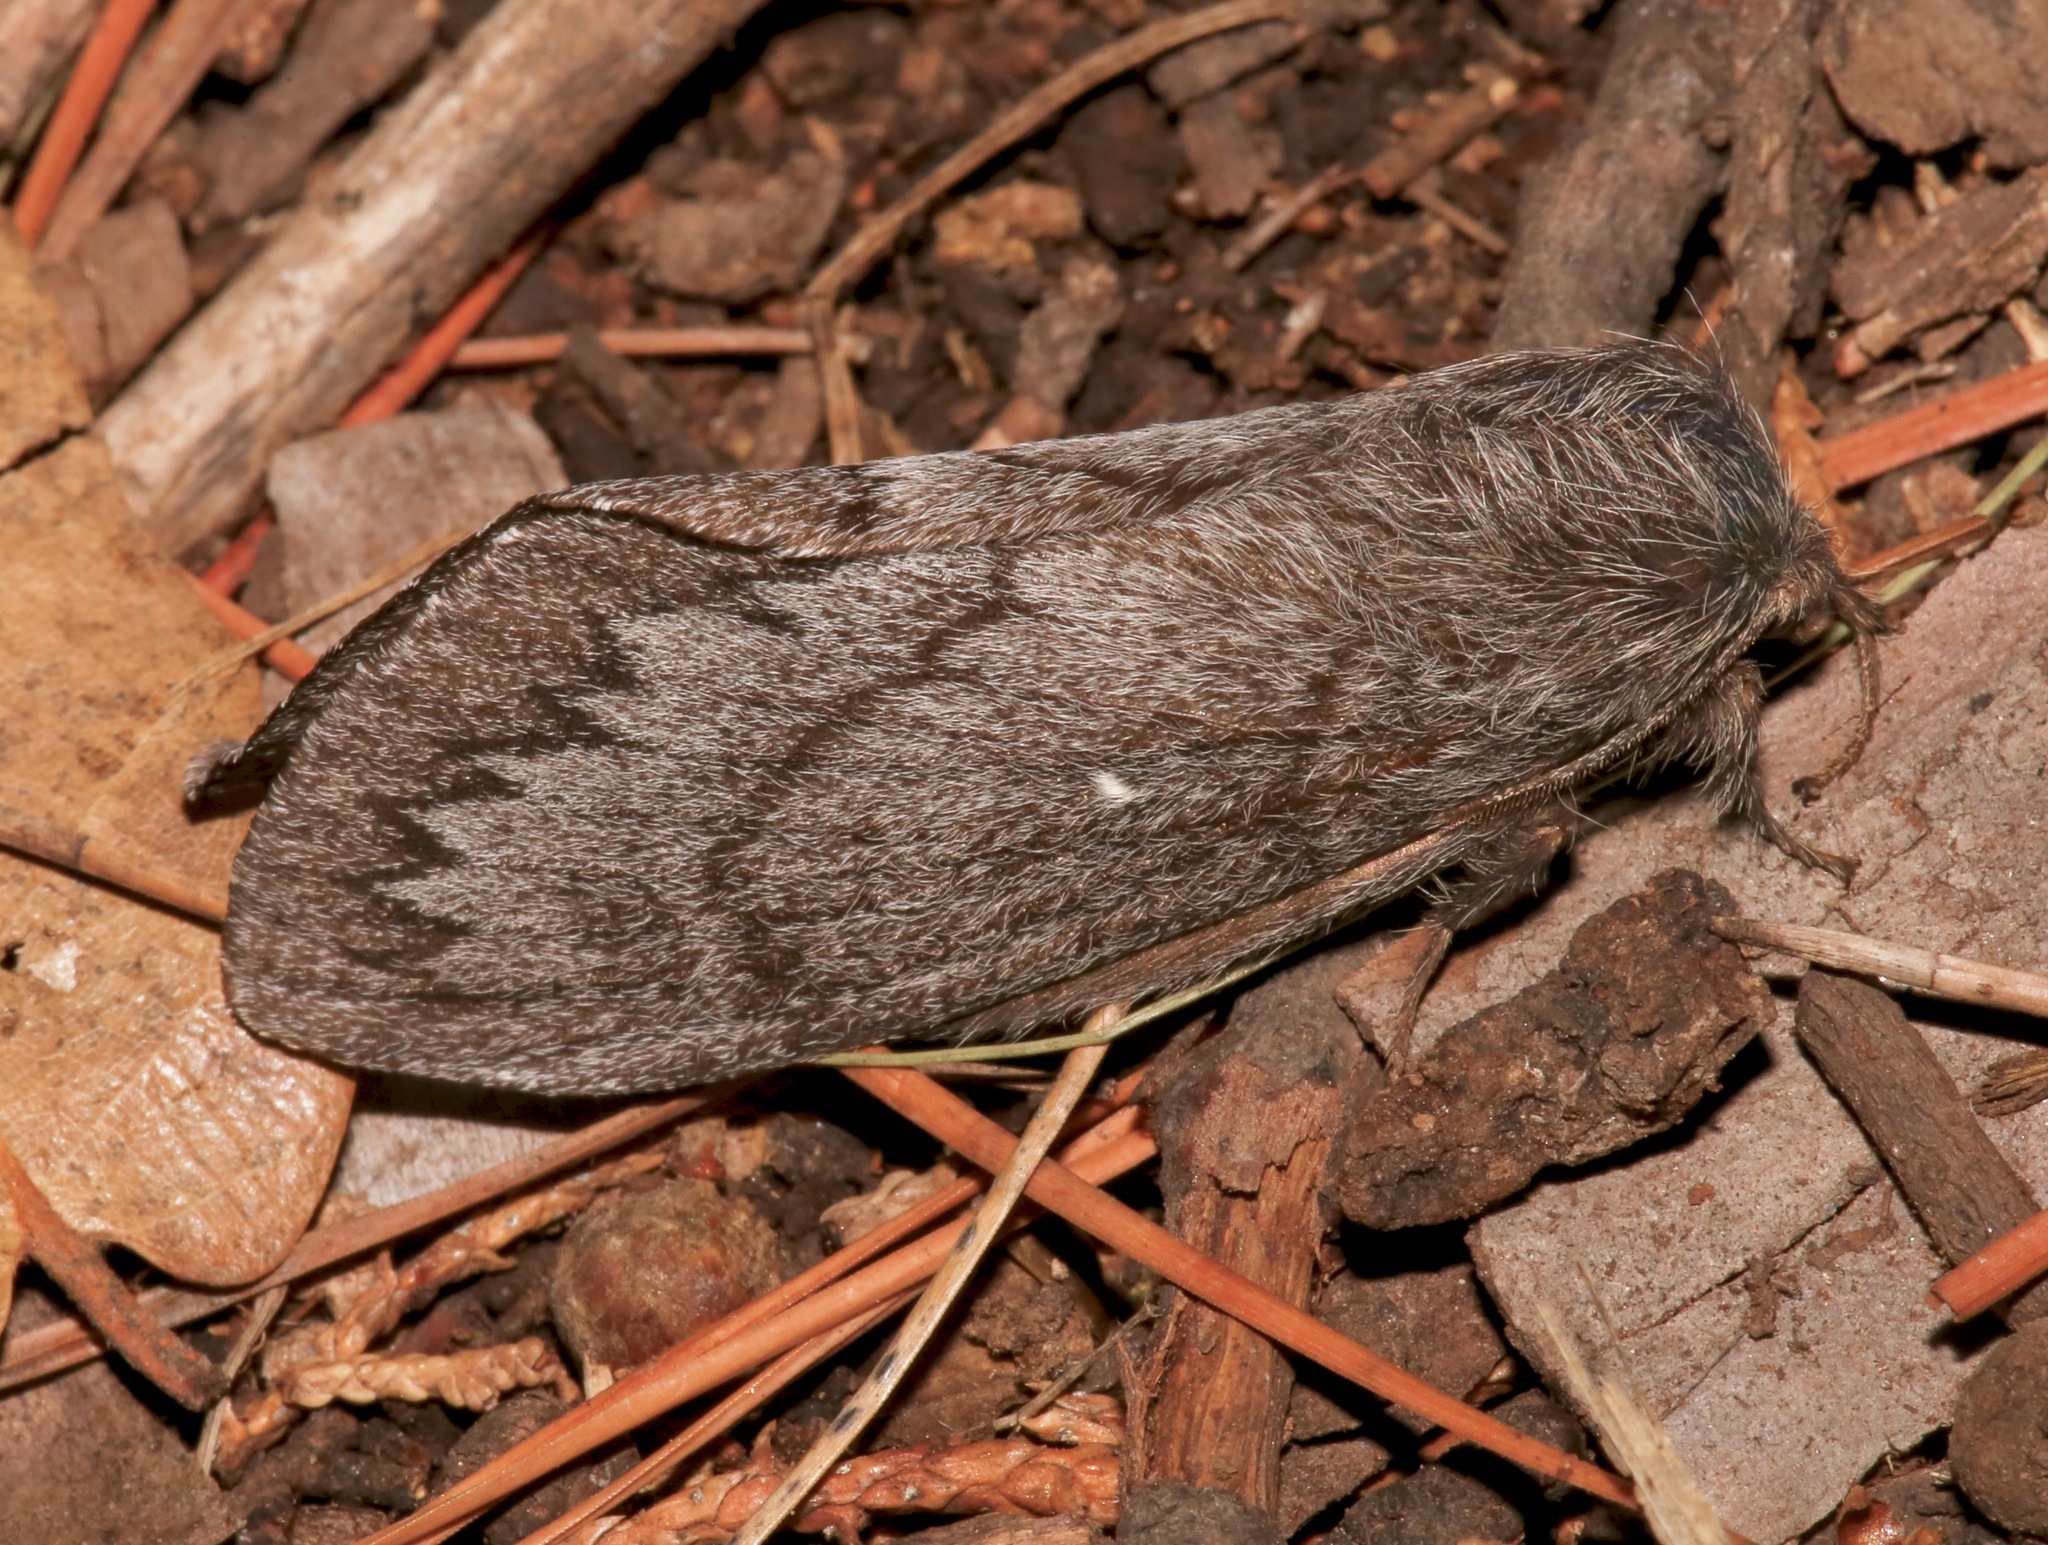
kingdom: Animalia
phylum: Arthropoda
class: Insecta
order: Lepidoptera
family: Lasiocampidae
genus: Gloveria
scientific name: Gloveria arizonensis
